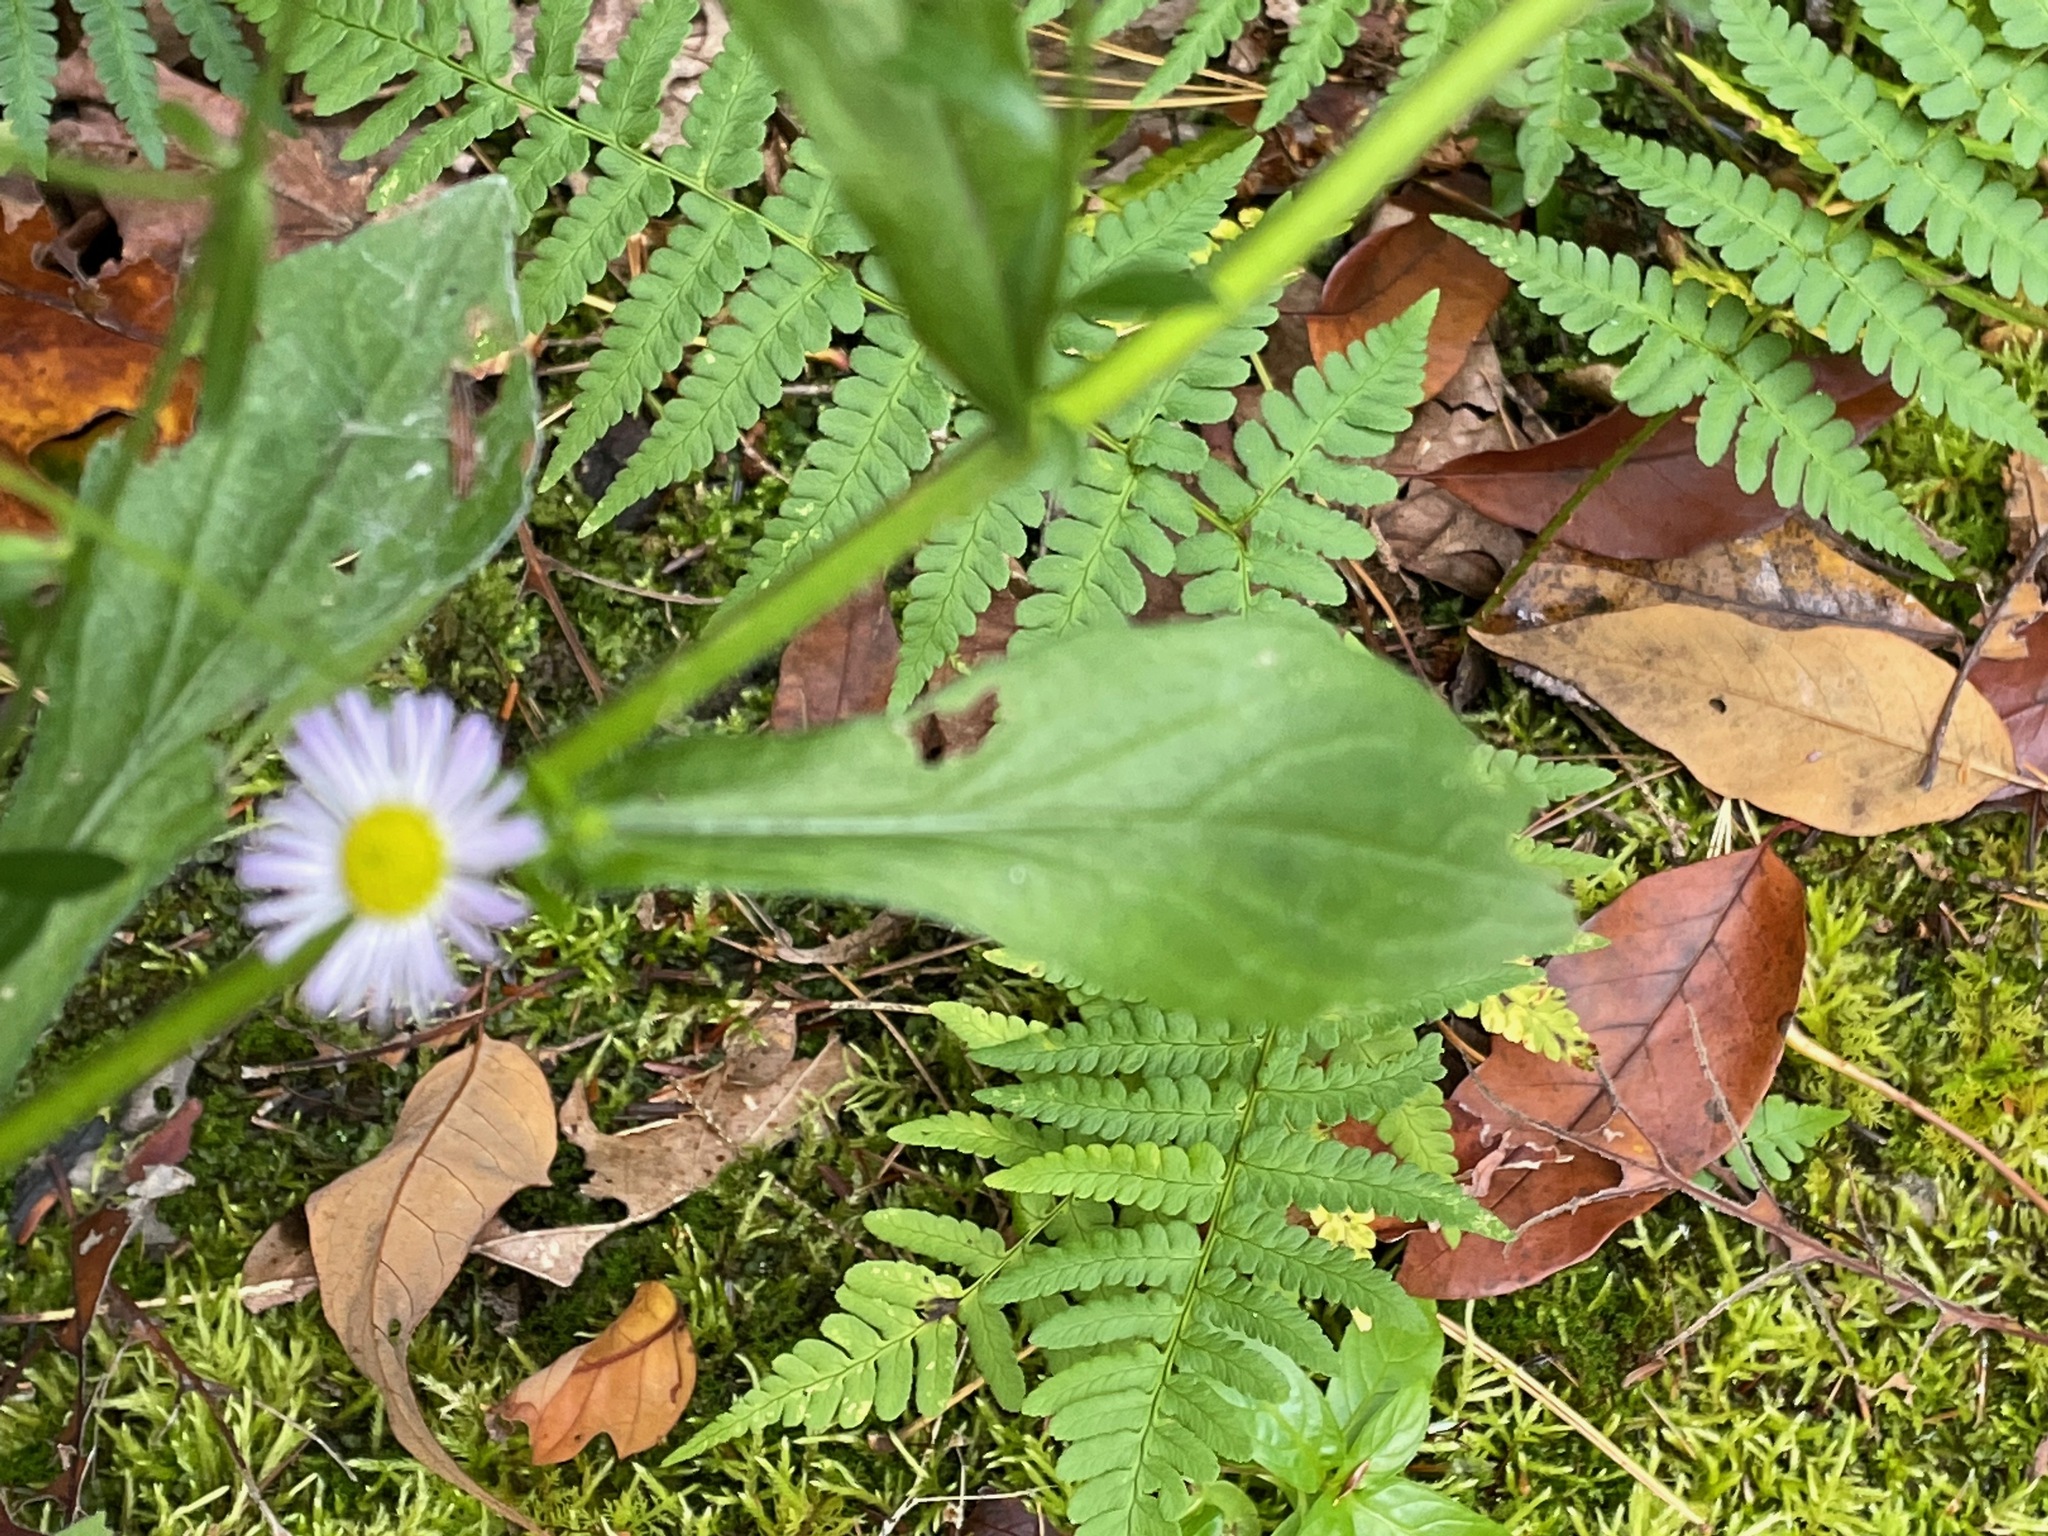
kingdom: Plantae
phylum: Tracheophyta
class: Magnoliopsida
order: Asterales
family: Asteraceae
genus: Erigeron
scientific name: Erigeron pulchellus
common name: Hairy fleabane
